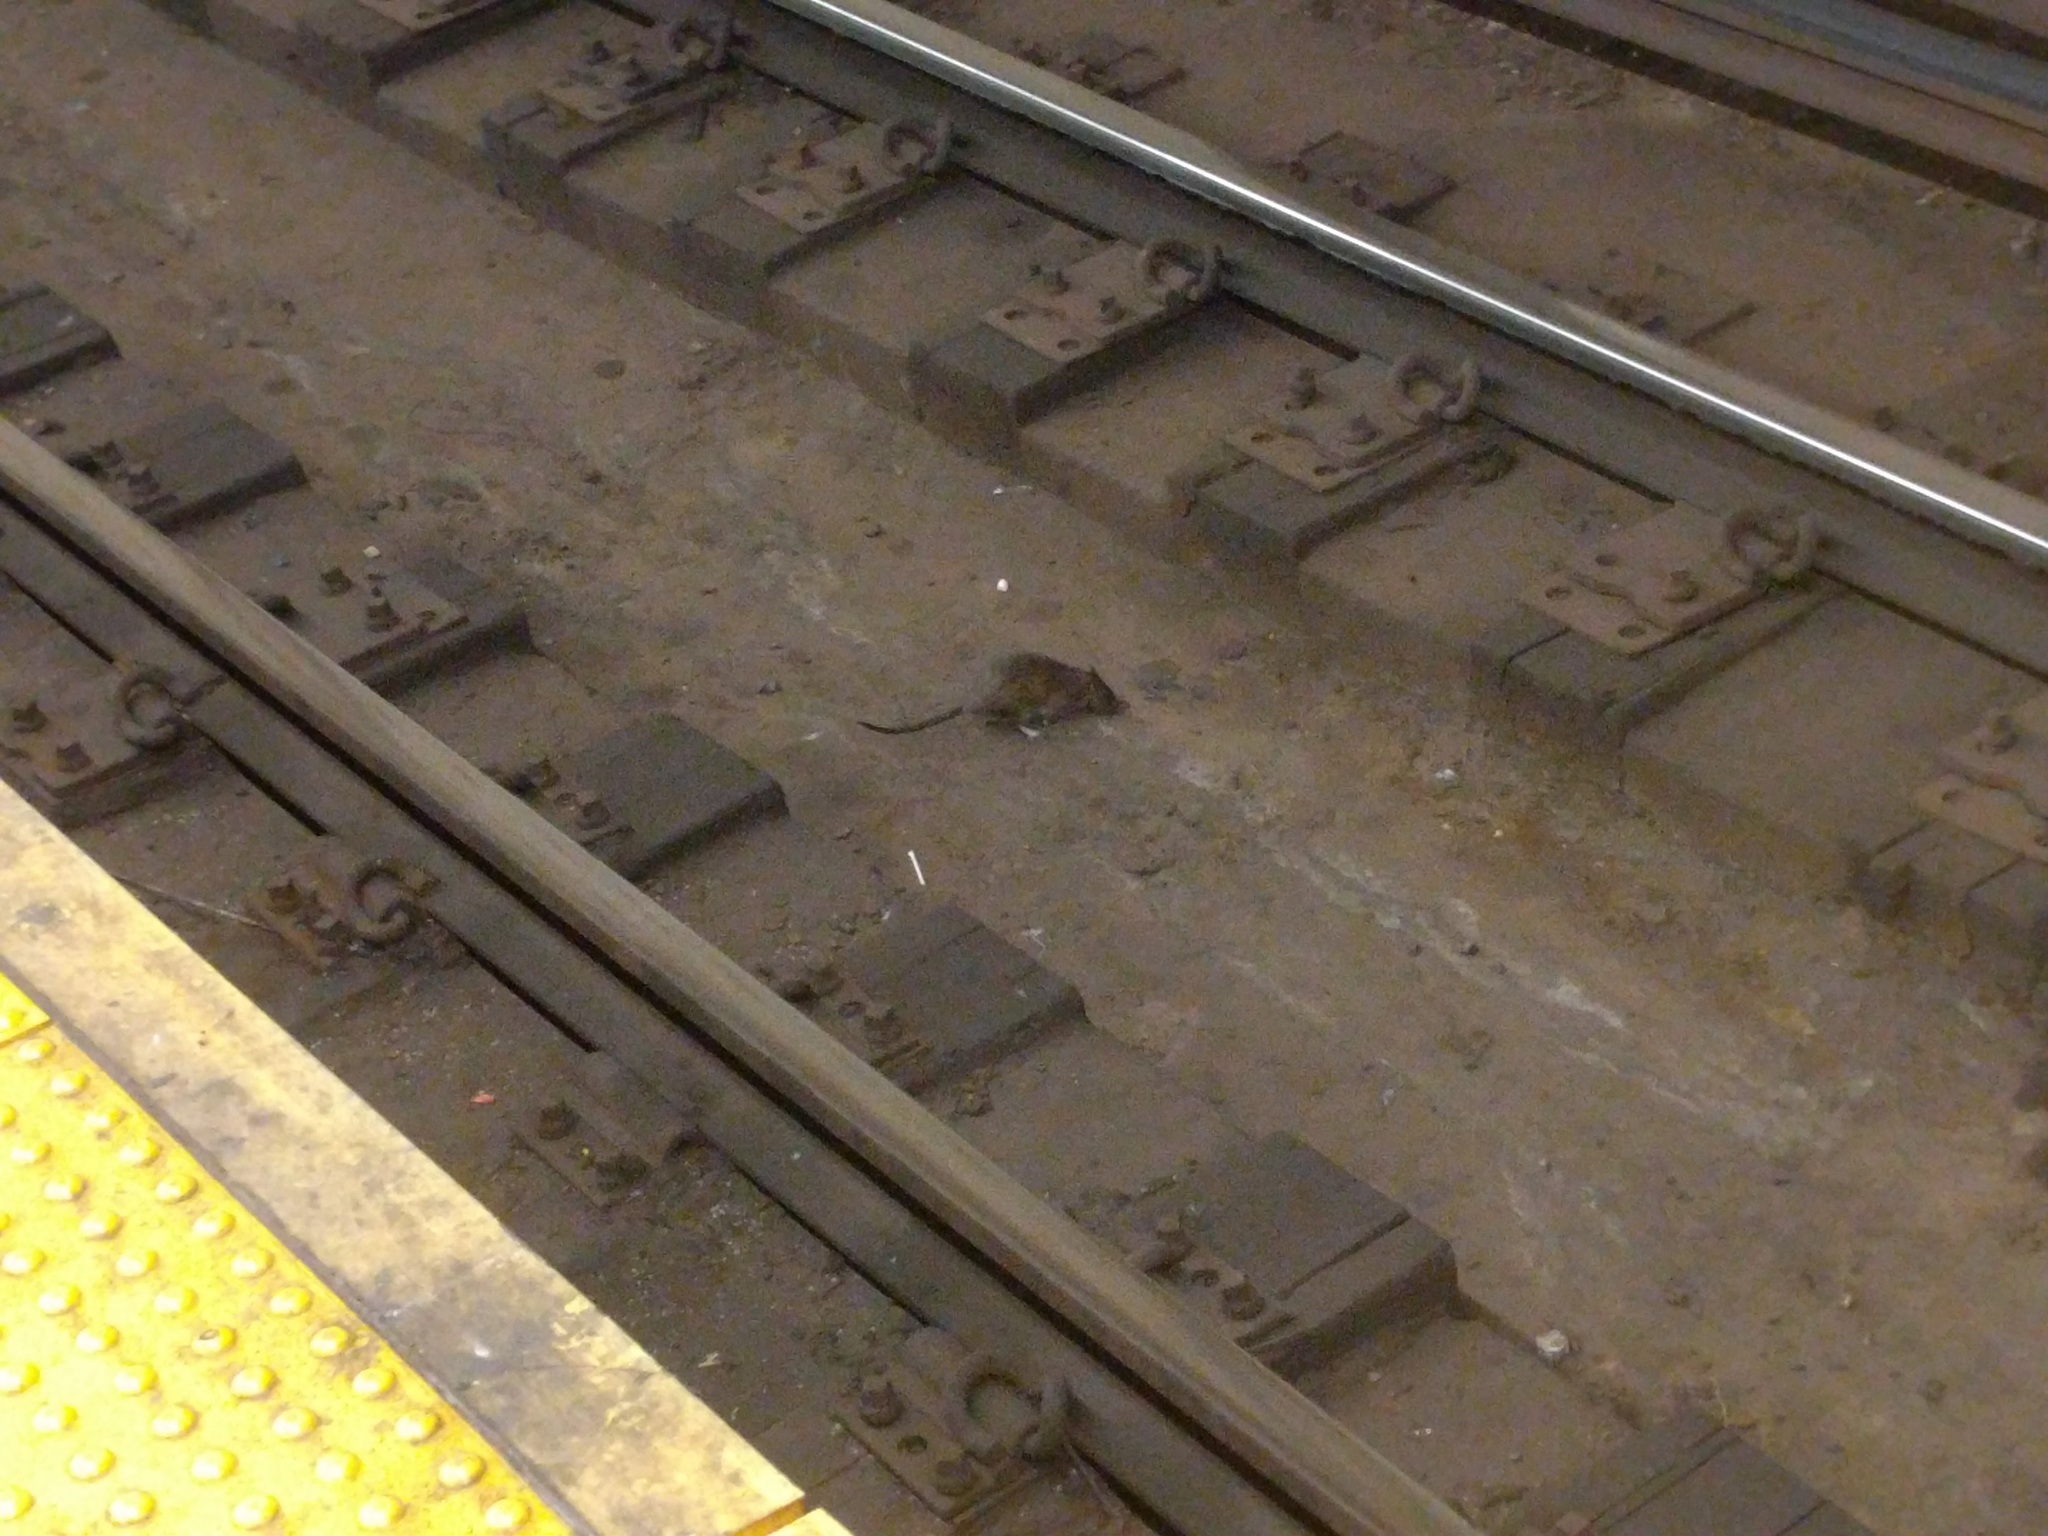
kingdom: Animalia
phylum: Chordata
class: Mammalia
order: Rodentia
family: Muridae
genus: Rattus
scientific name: Rattus norvegicus
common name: Brown rat
